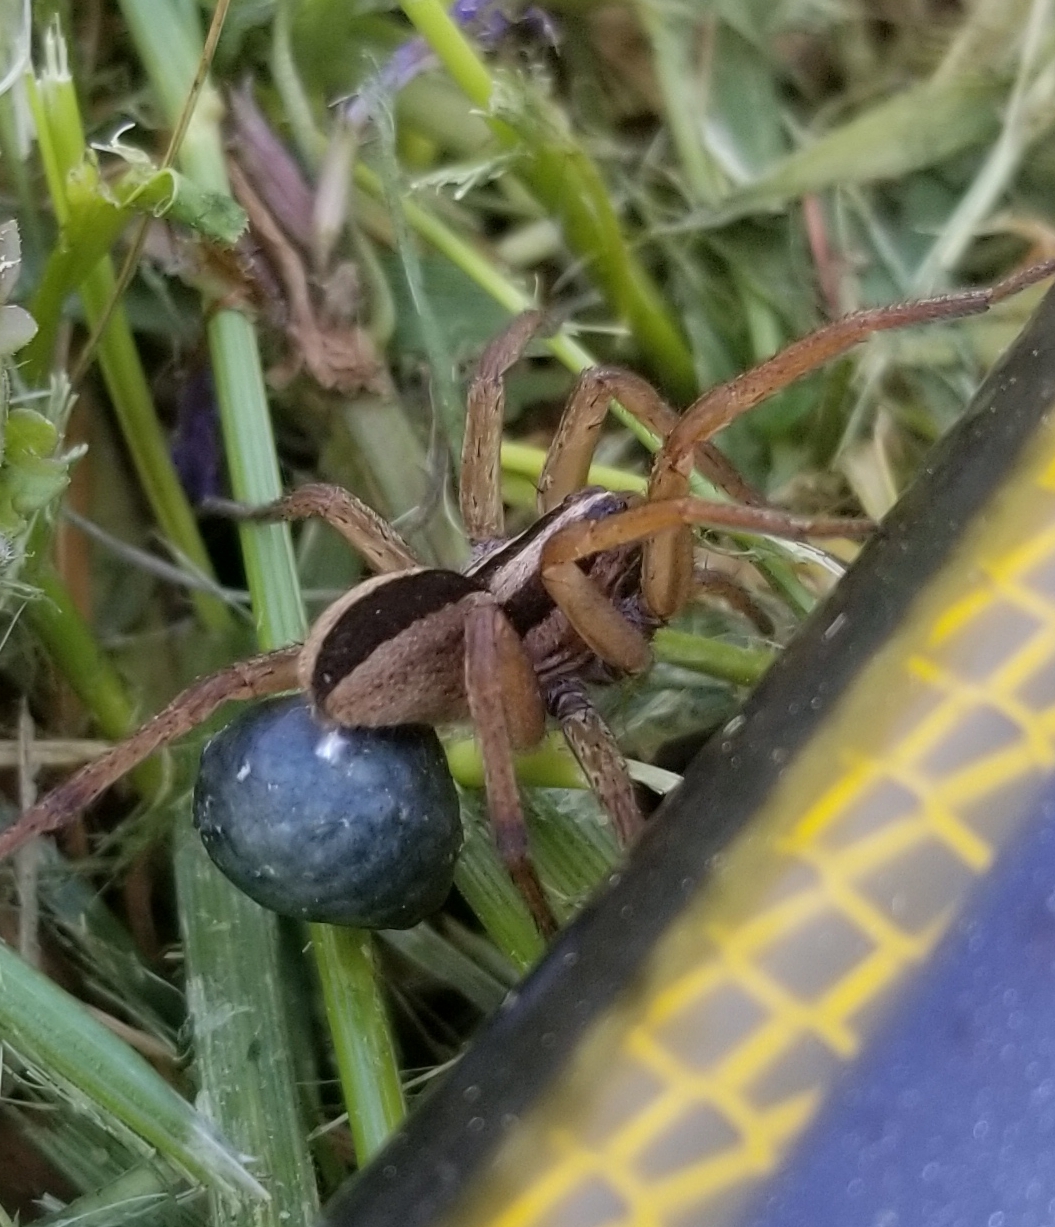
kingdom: Animalia
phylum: Arthropoda
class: Arachnida
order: Araneae
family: Lycosidae
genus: Rabidosa
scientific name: Rabidosa punctulata
